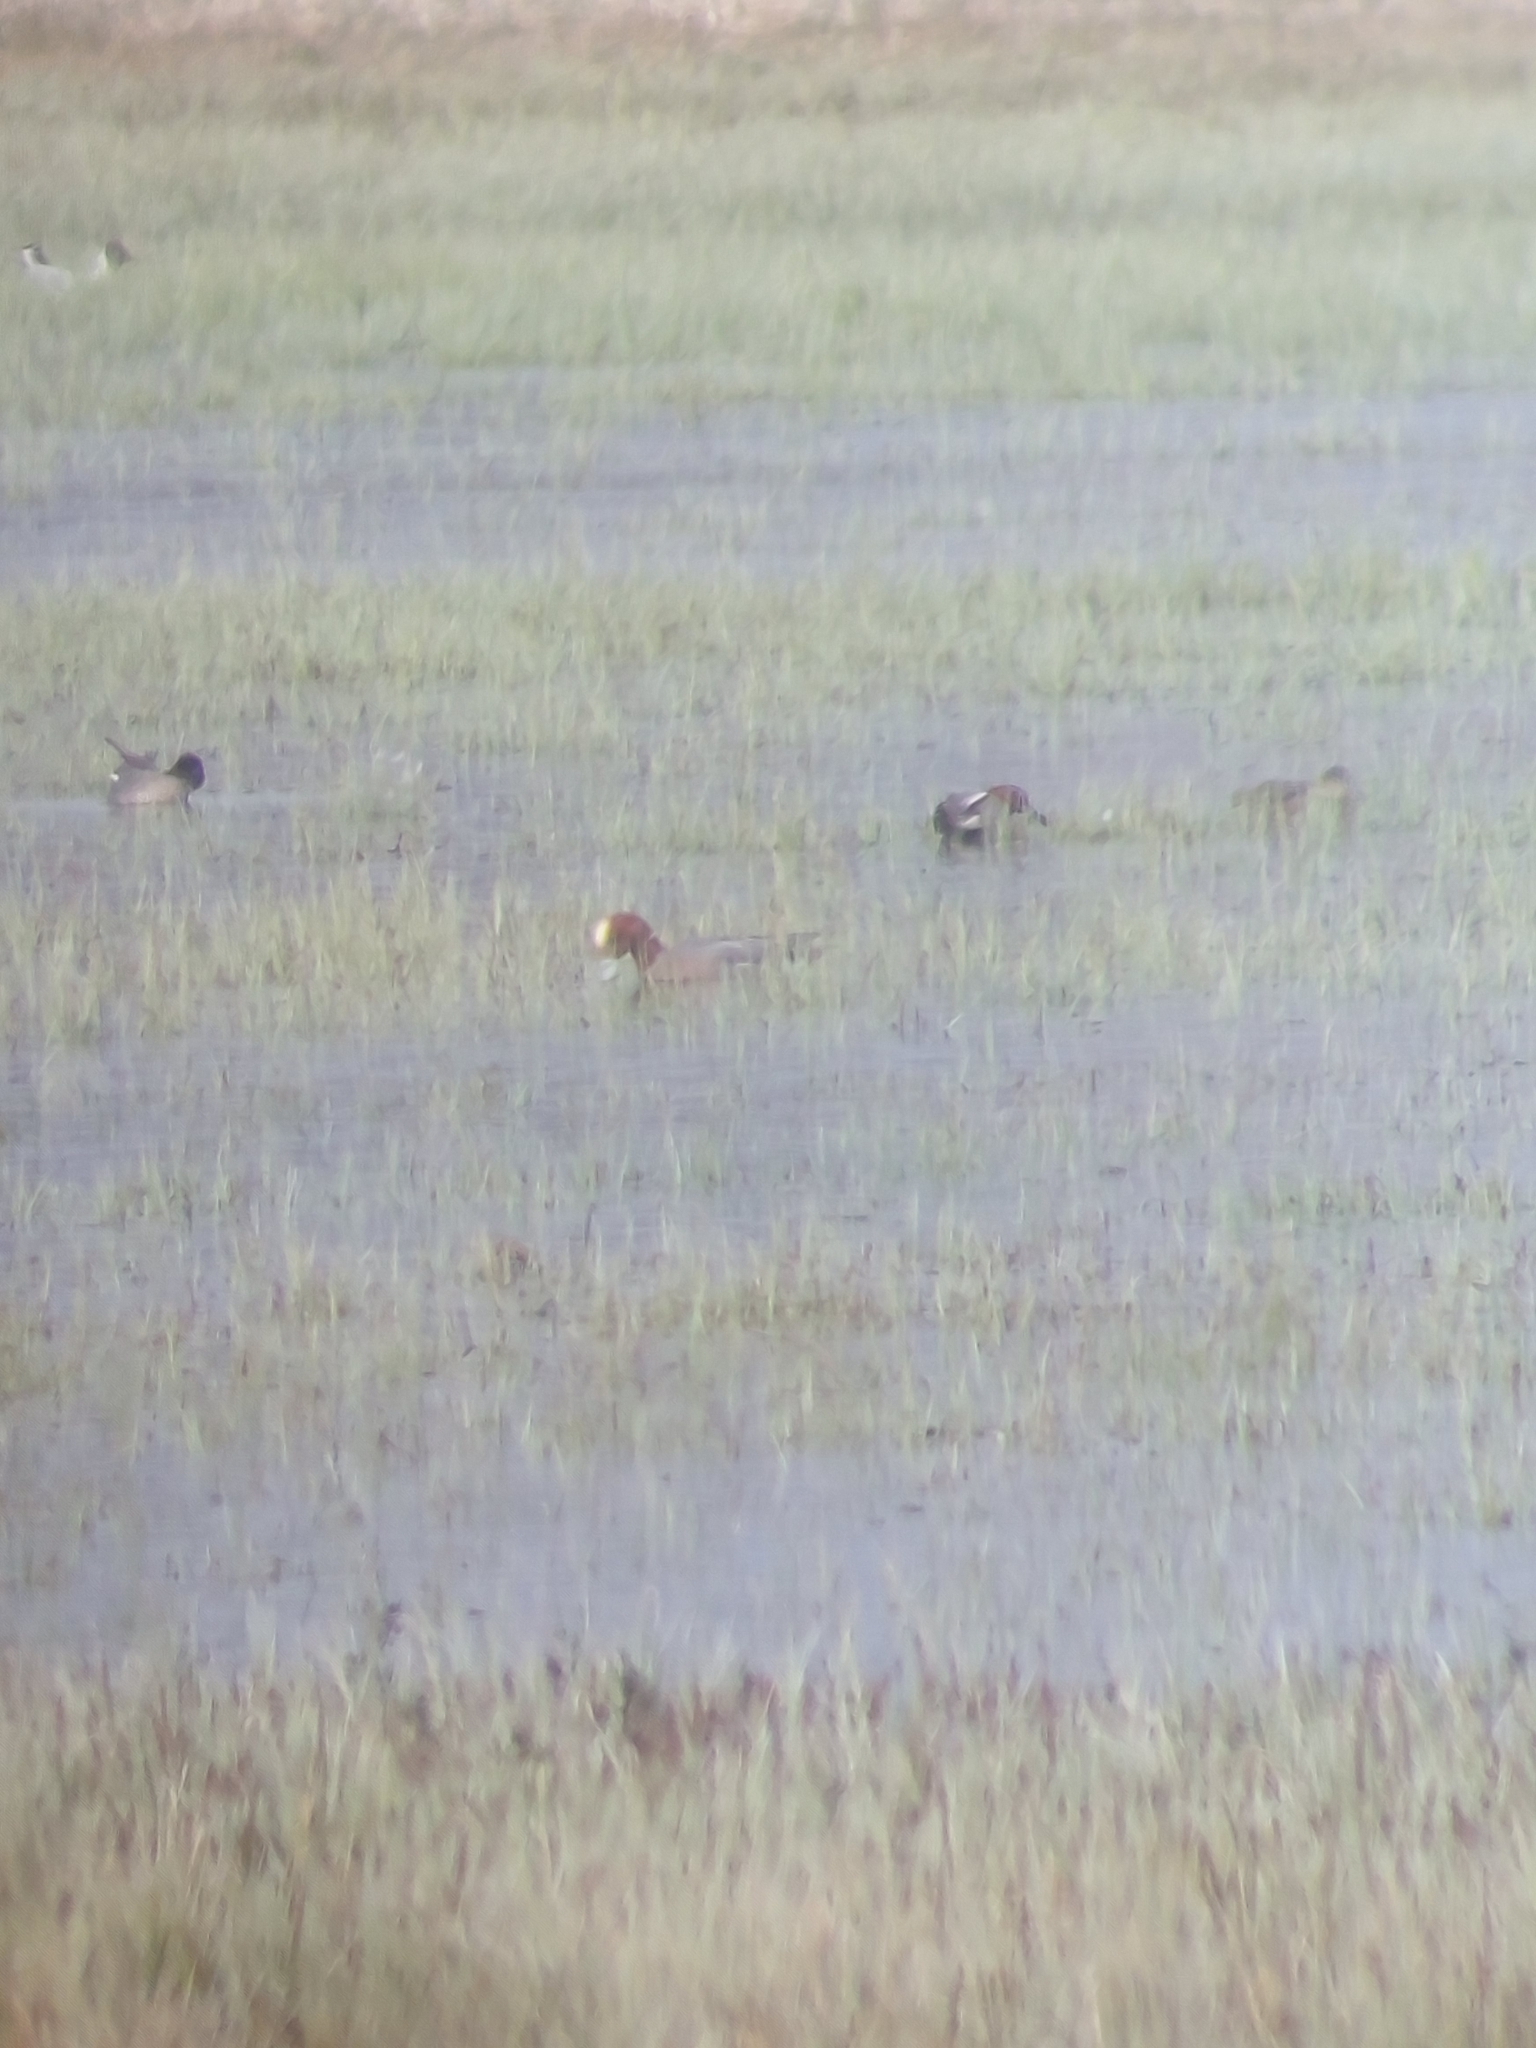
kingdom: Animalia
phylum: Chordata
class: Aves
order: Anseriformes
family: Anatidae
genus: Mareca
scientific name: Mareca penelope
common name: Eurasian wigeon
